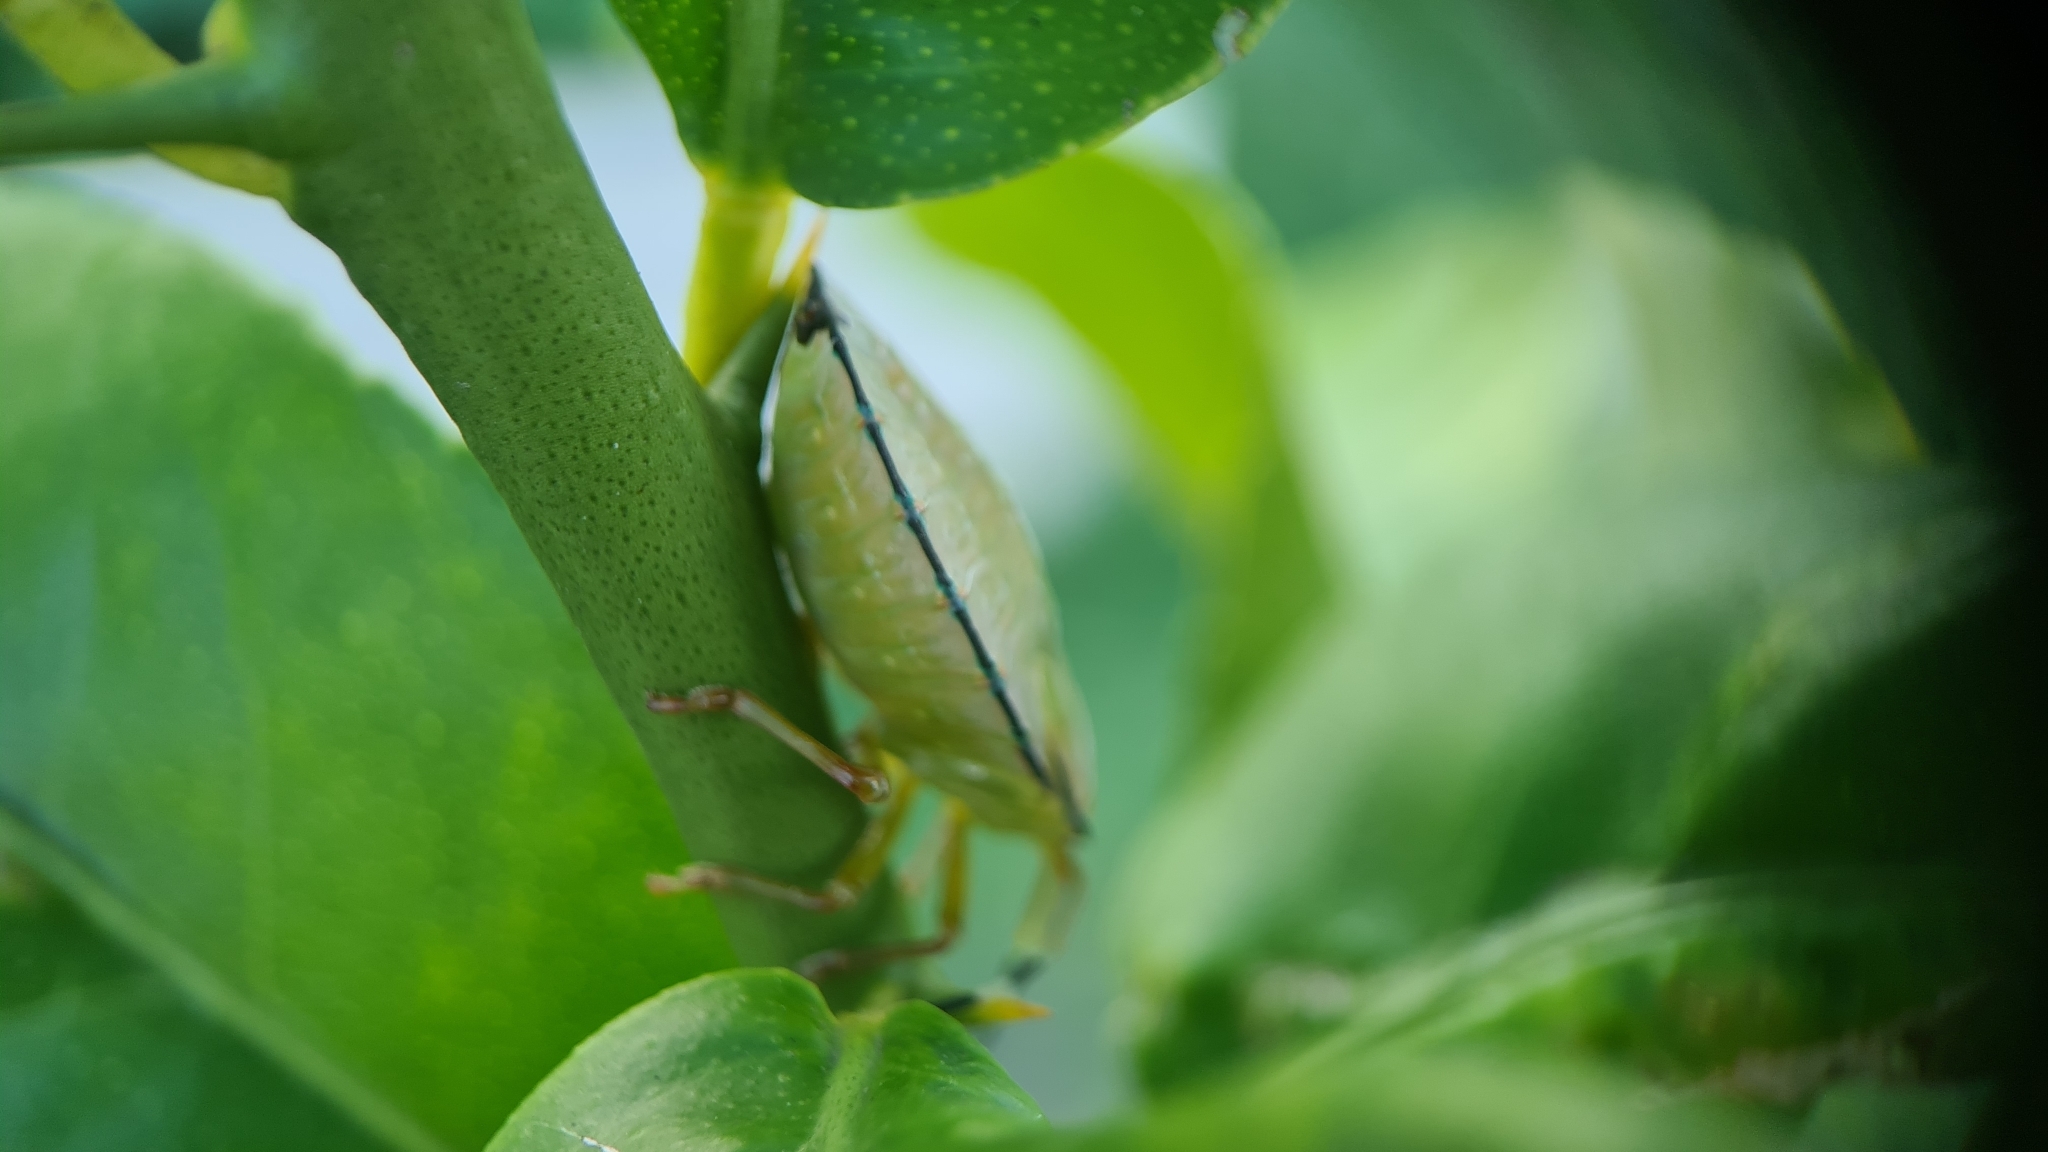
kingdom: Animalia
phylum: Arthropoda
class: Insecta
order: Hemiptera
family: Tessaratomidae
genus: Musgraveia
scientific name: Musgraveia sulciventris
